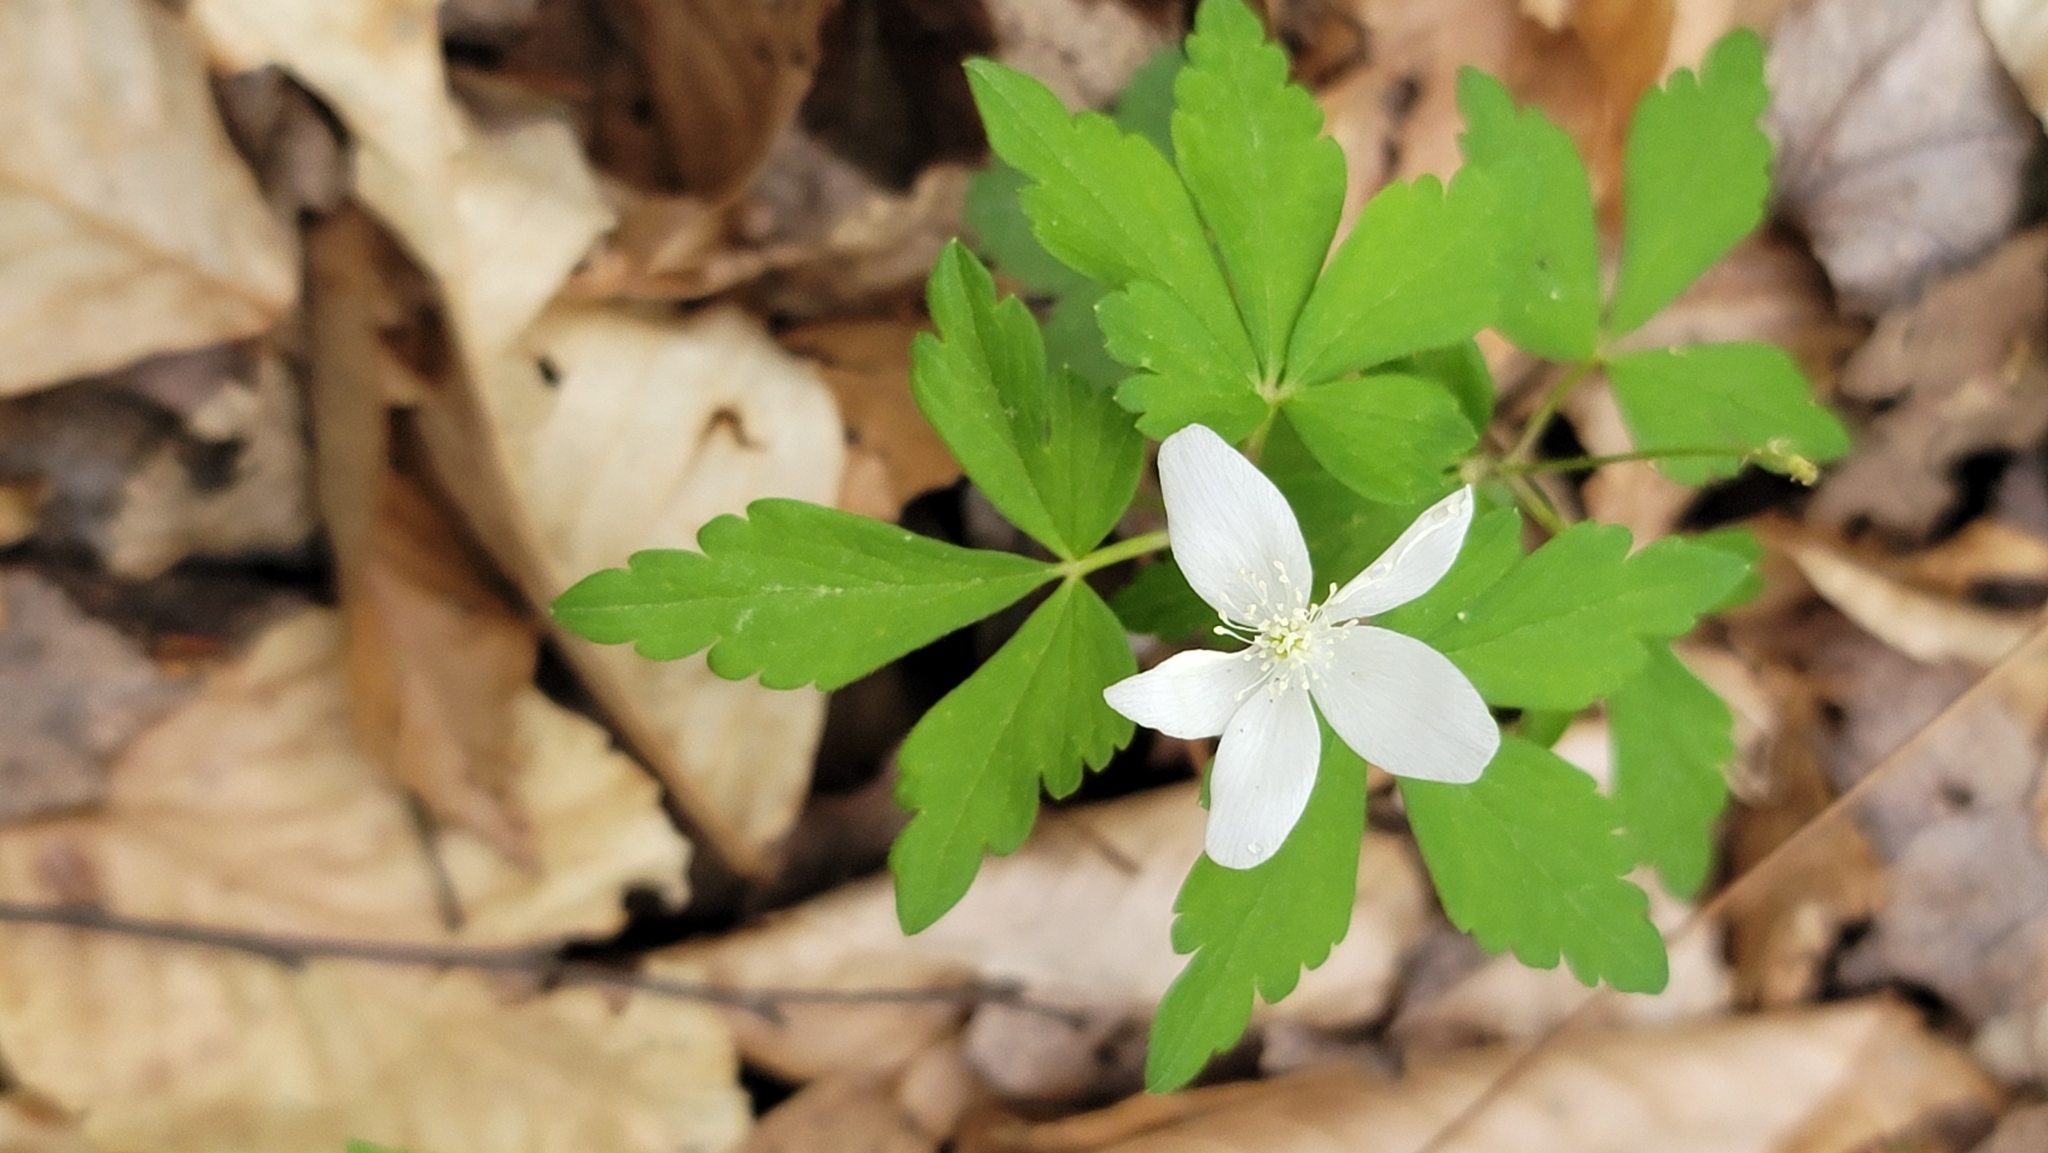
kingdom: Plantae
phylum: Tracheophyta
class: Magnoliopsida
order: Ranunculales
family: Ranunculaceae
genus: Anemone
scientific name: Anemone quinquefolia
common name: Wood anemone
